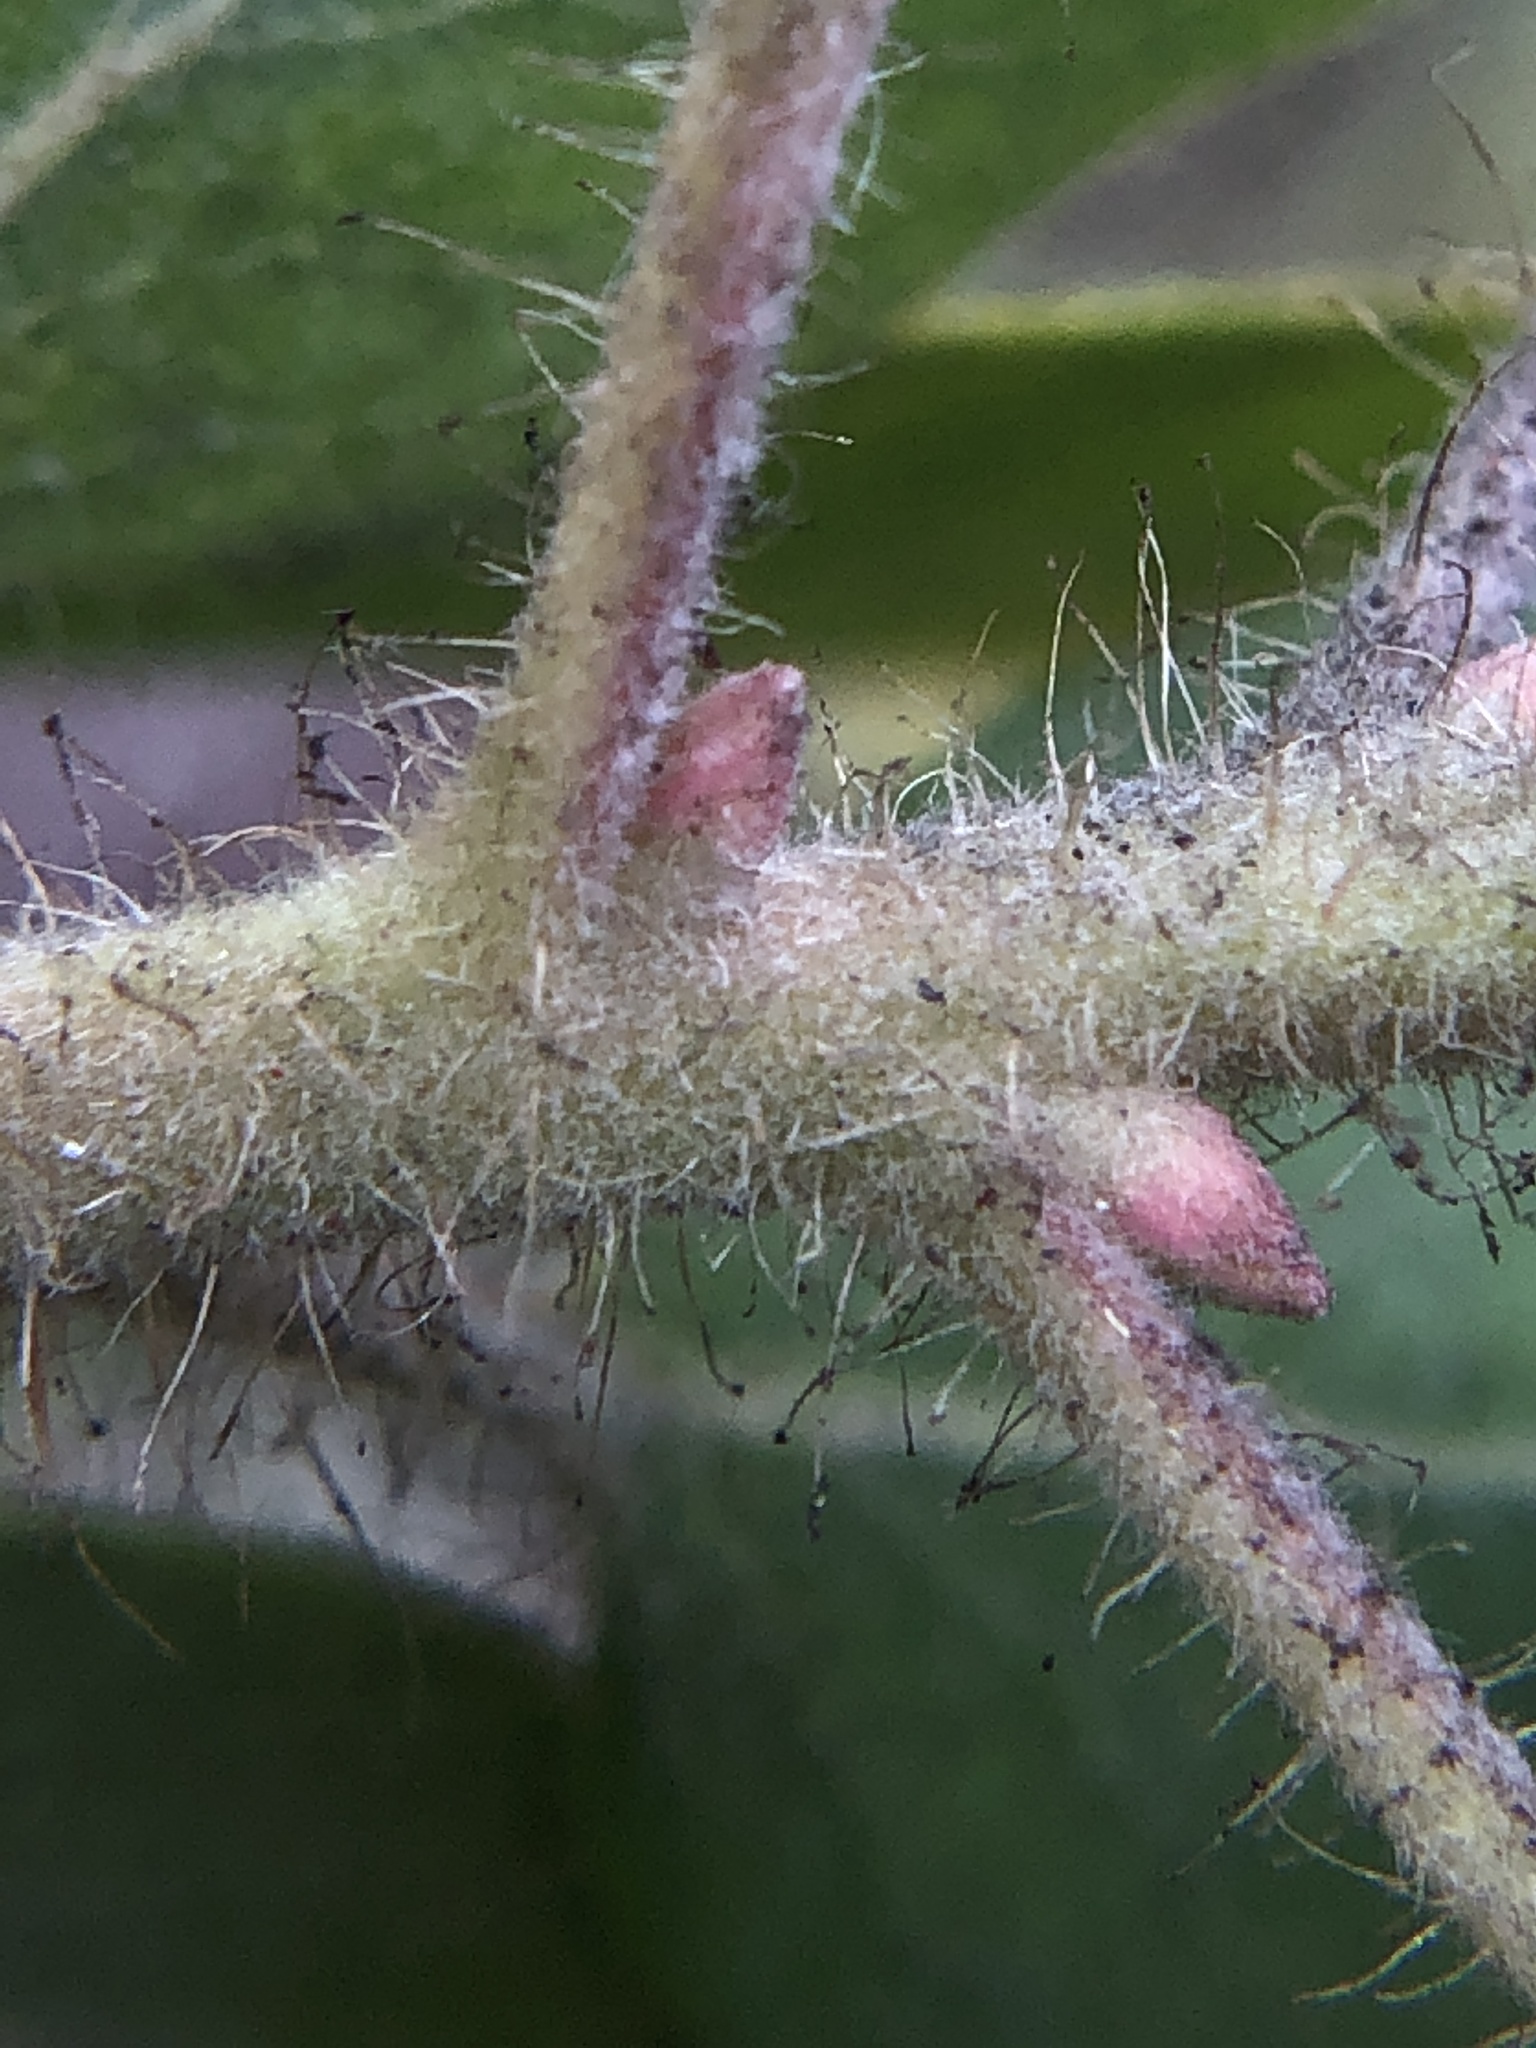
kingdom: Plantae
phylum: Tracheophyta
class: Magnoliopsida
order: Ericales
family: Ericaceae
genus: Arctostaphylos
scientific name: Arctostaphylos columbiana
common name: Bristly bearberry
